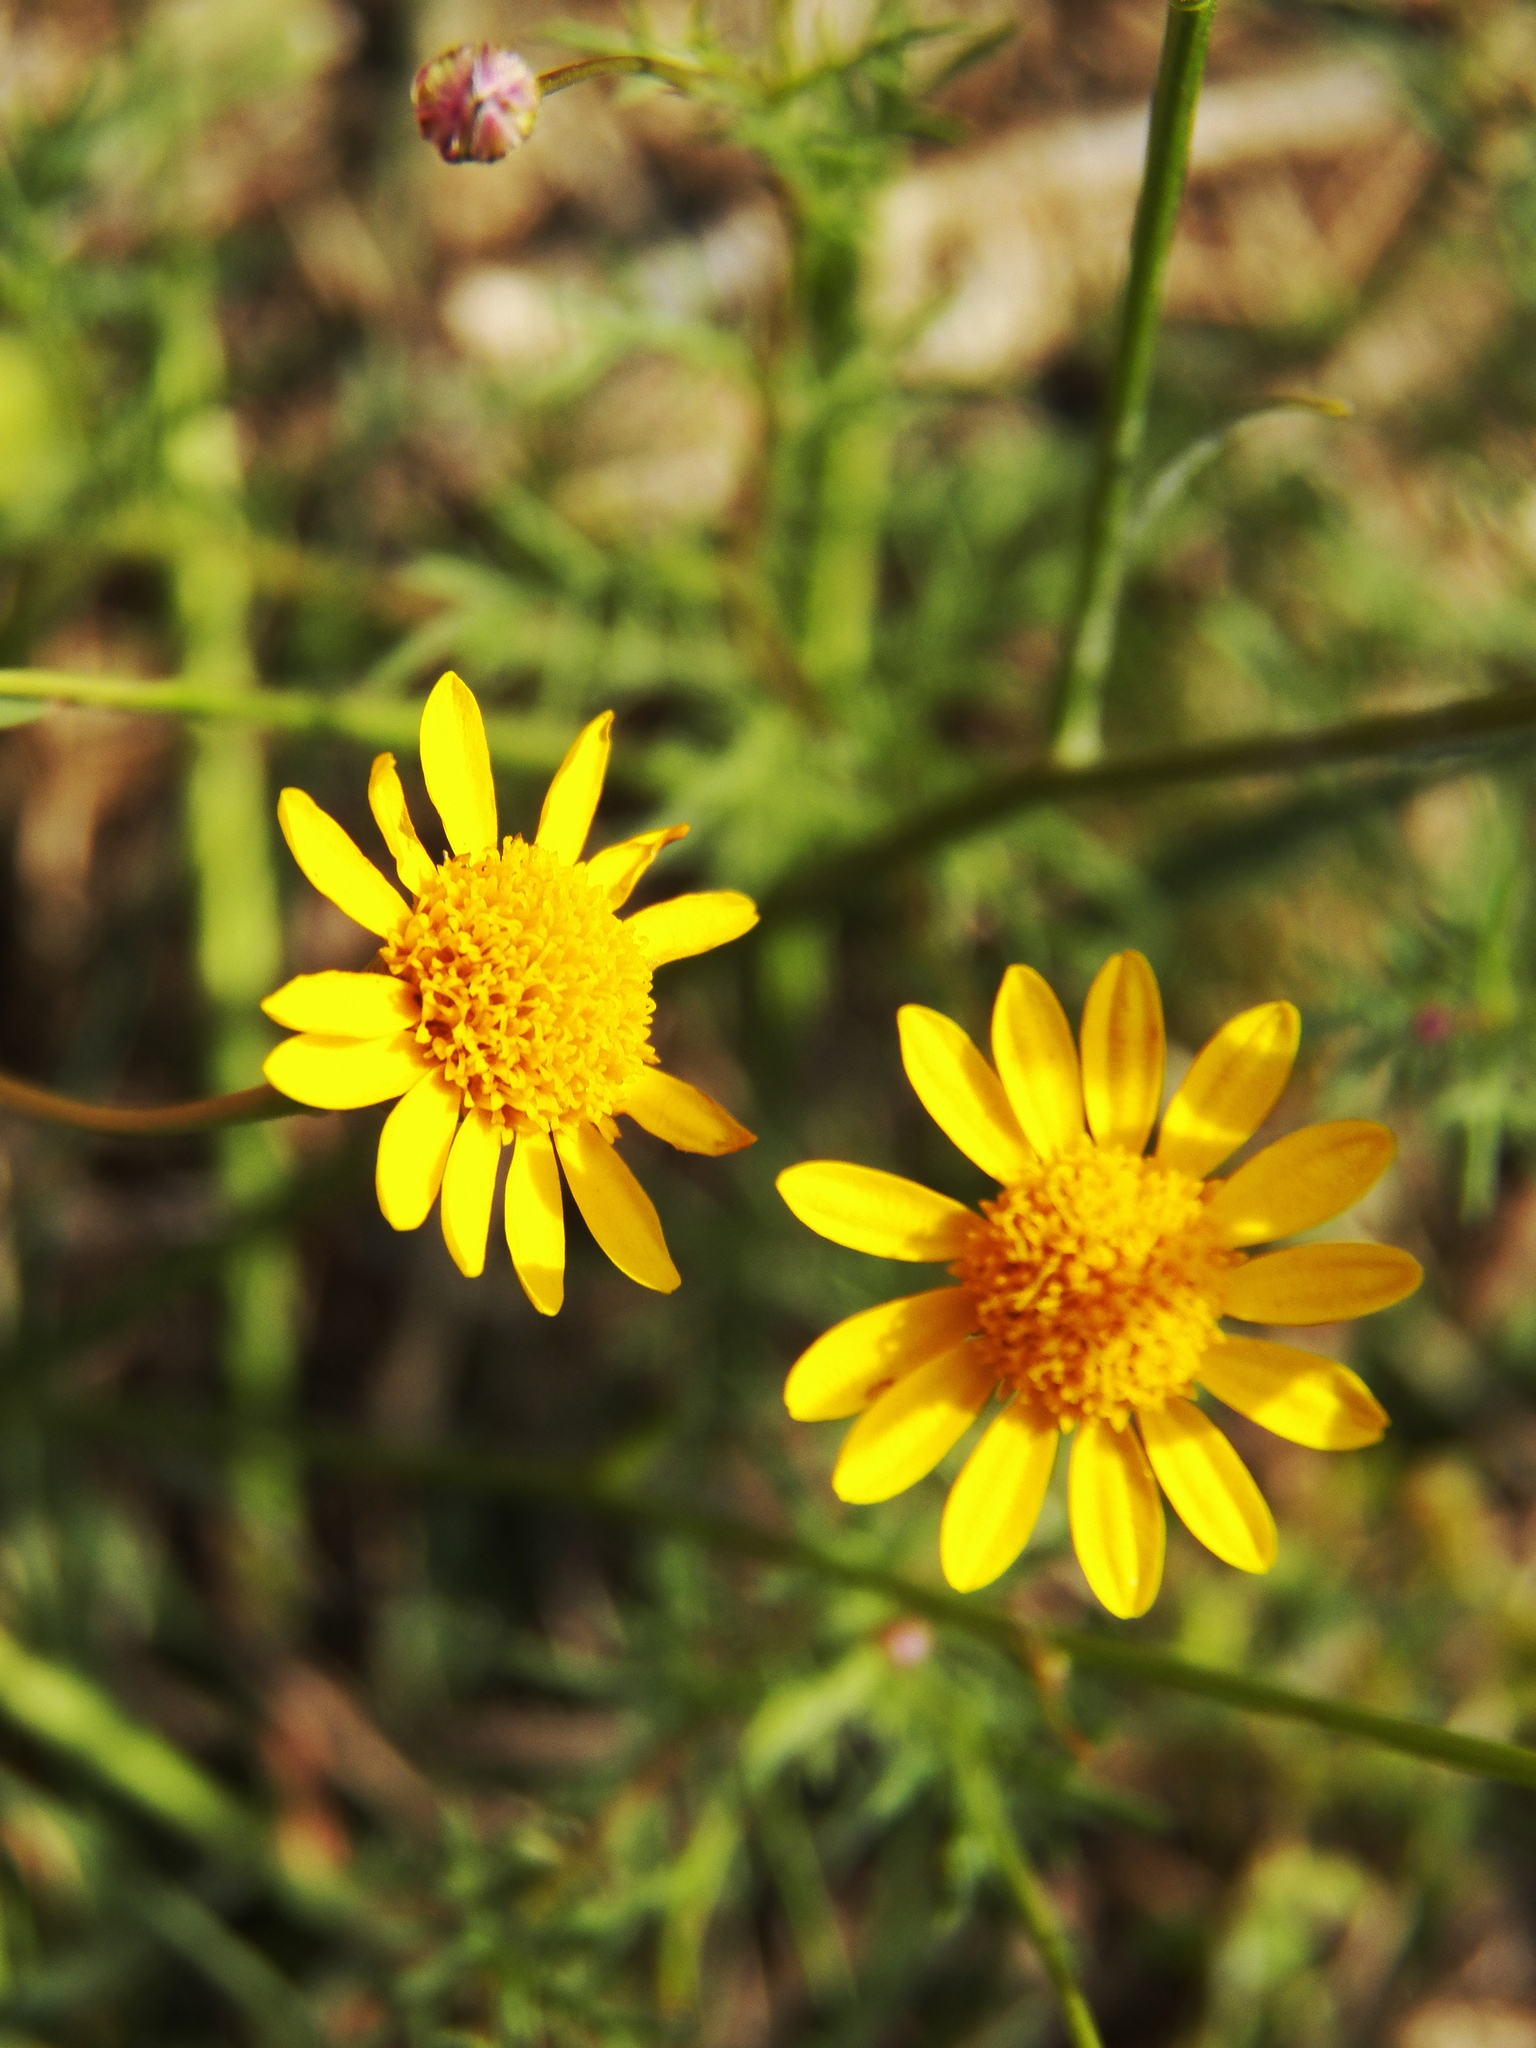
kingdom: Plantae
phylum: Tracheophyta
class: Magnoliopsida
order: Asterales
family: Asteraceae
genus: Thymophylla
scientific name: Thymophylla tenuiloba
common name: Dahlberg's daisy
